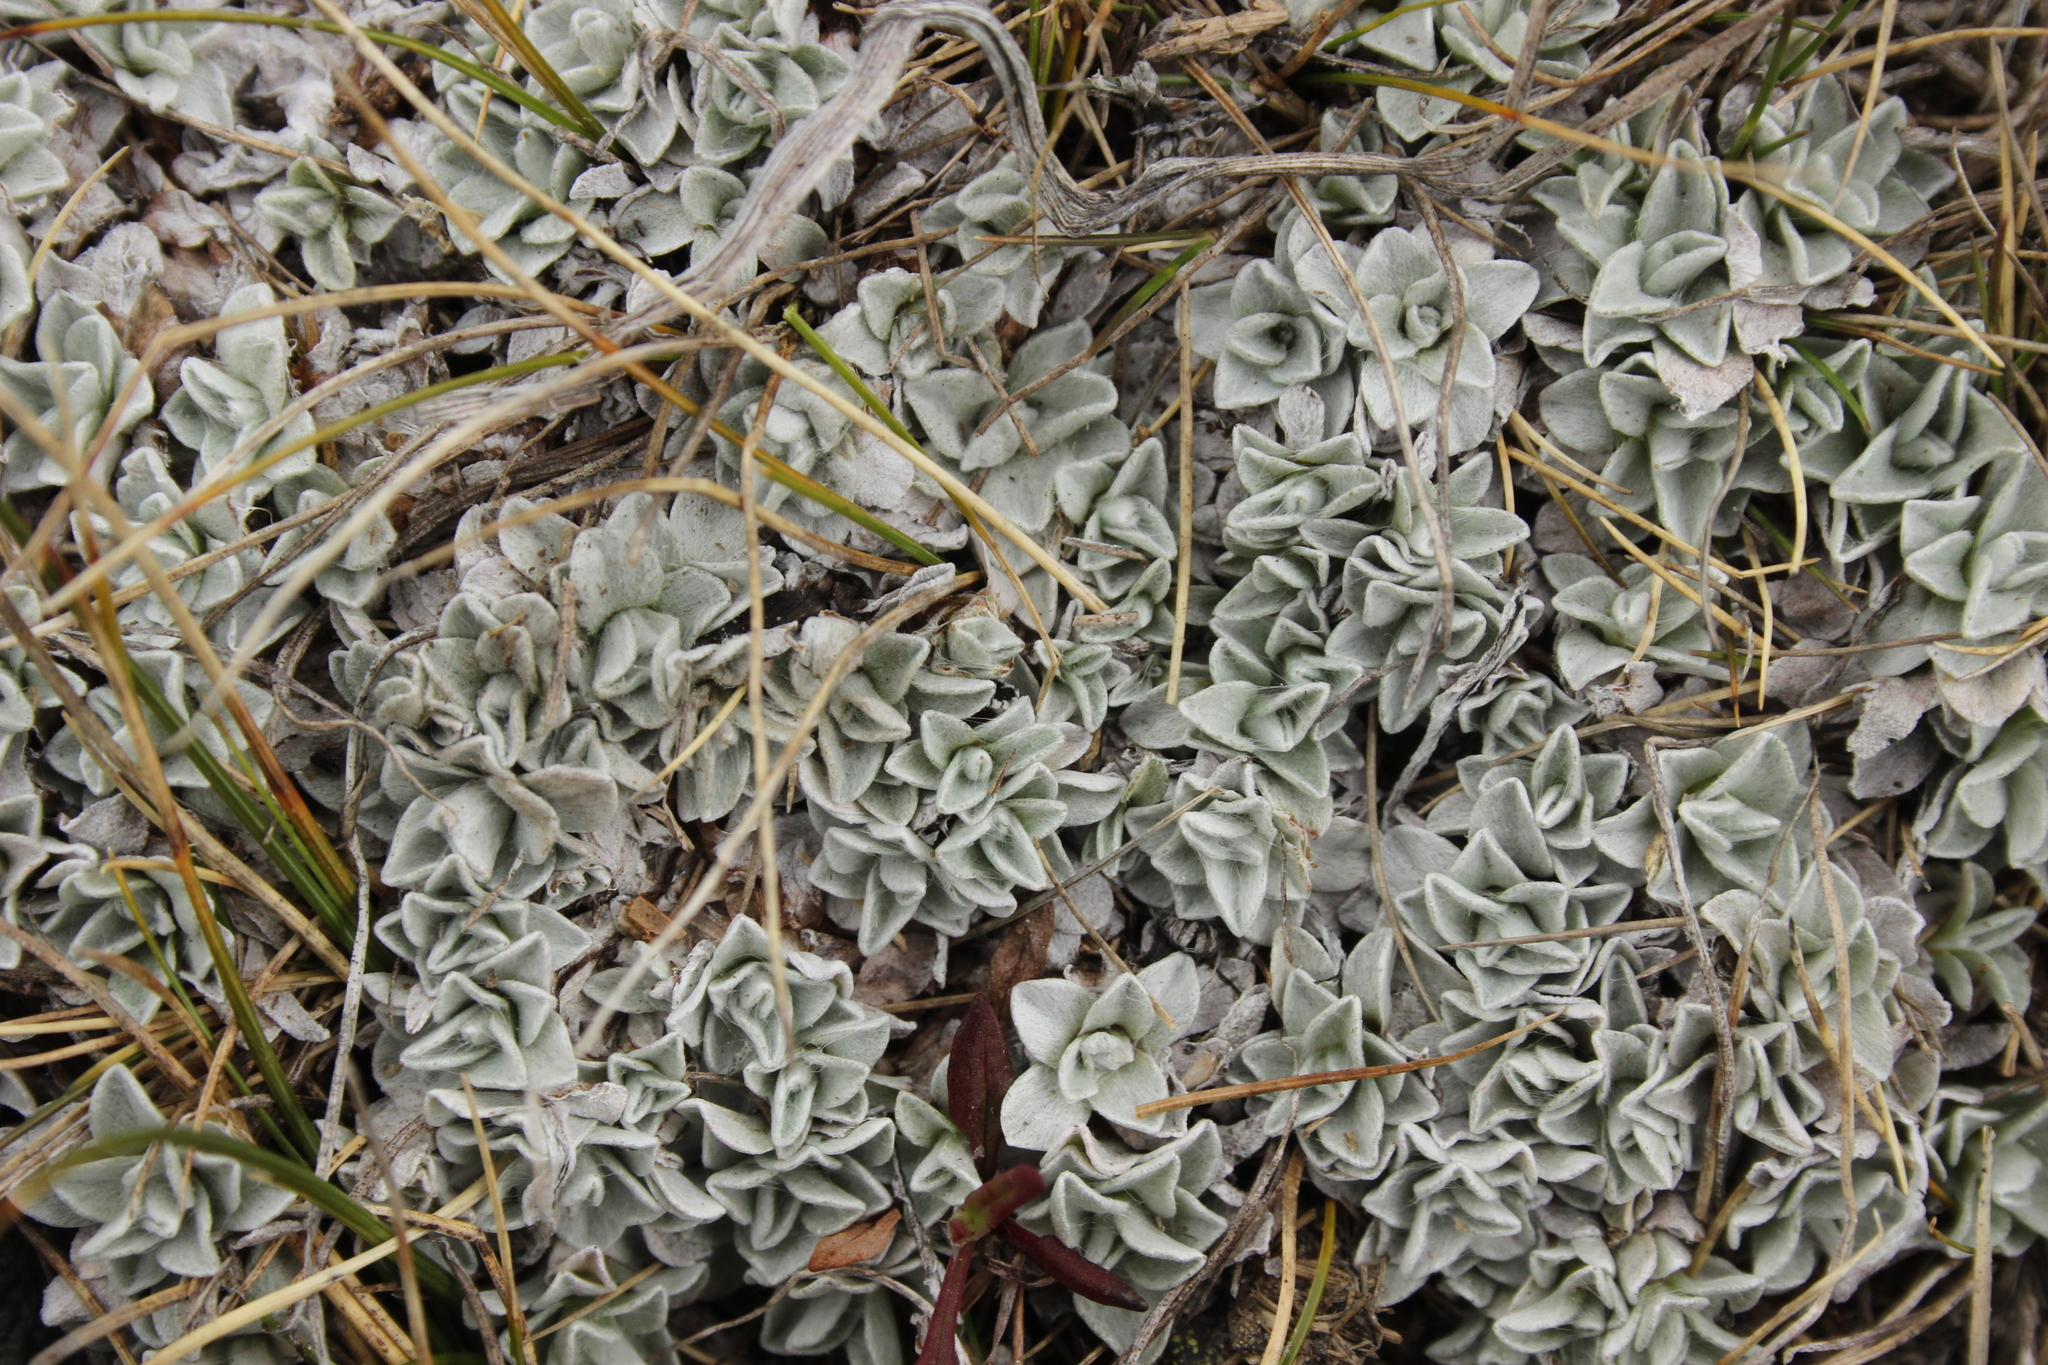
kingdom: Plantae
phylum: Tracheophyta
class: Magnoliopsida
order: Asterales
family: Asteraceae
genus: Argyrotegium
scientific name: Argyrotegium mackayi
